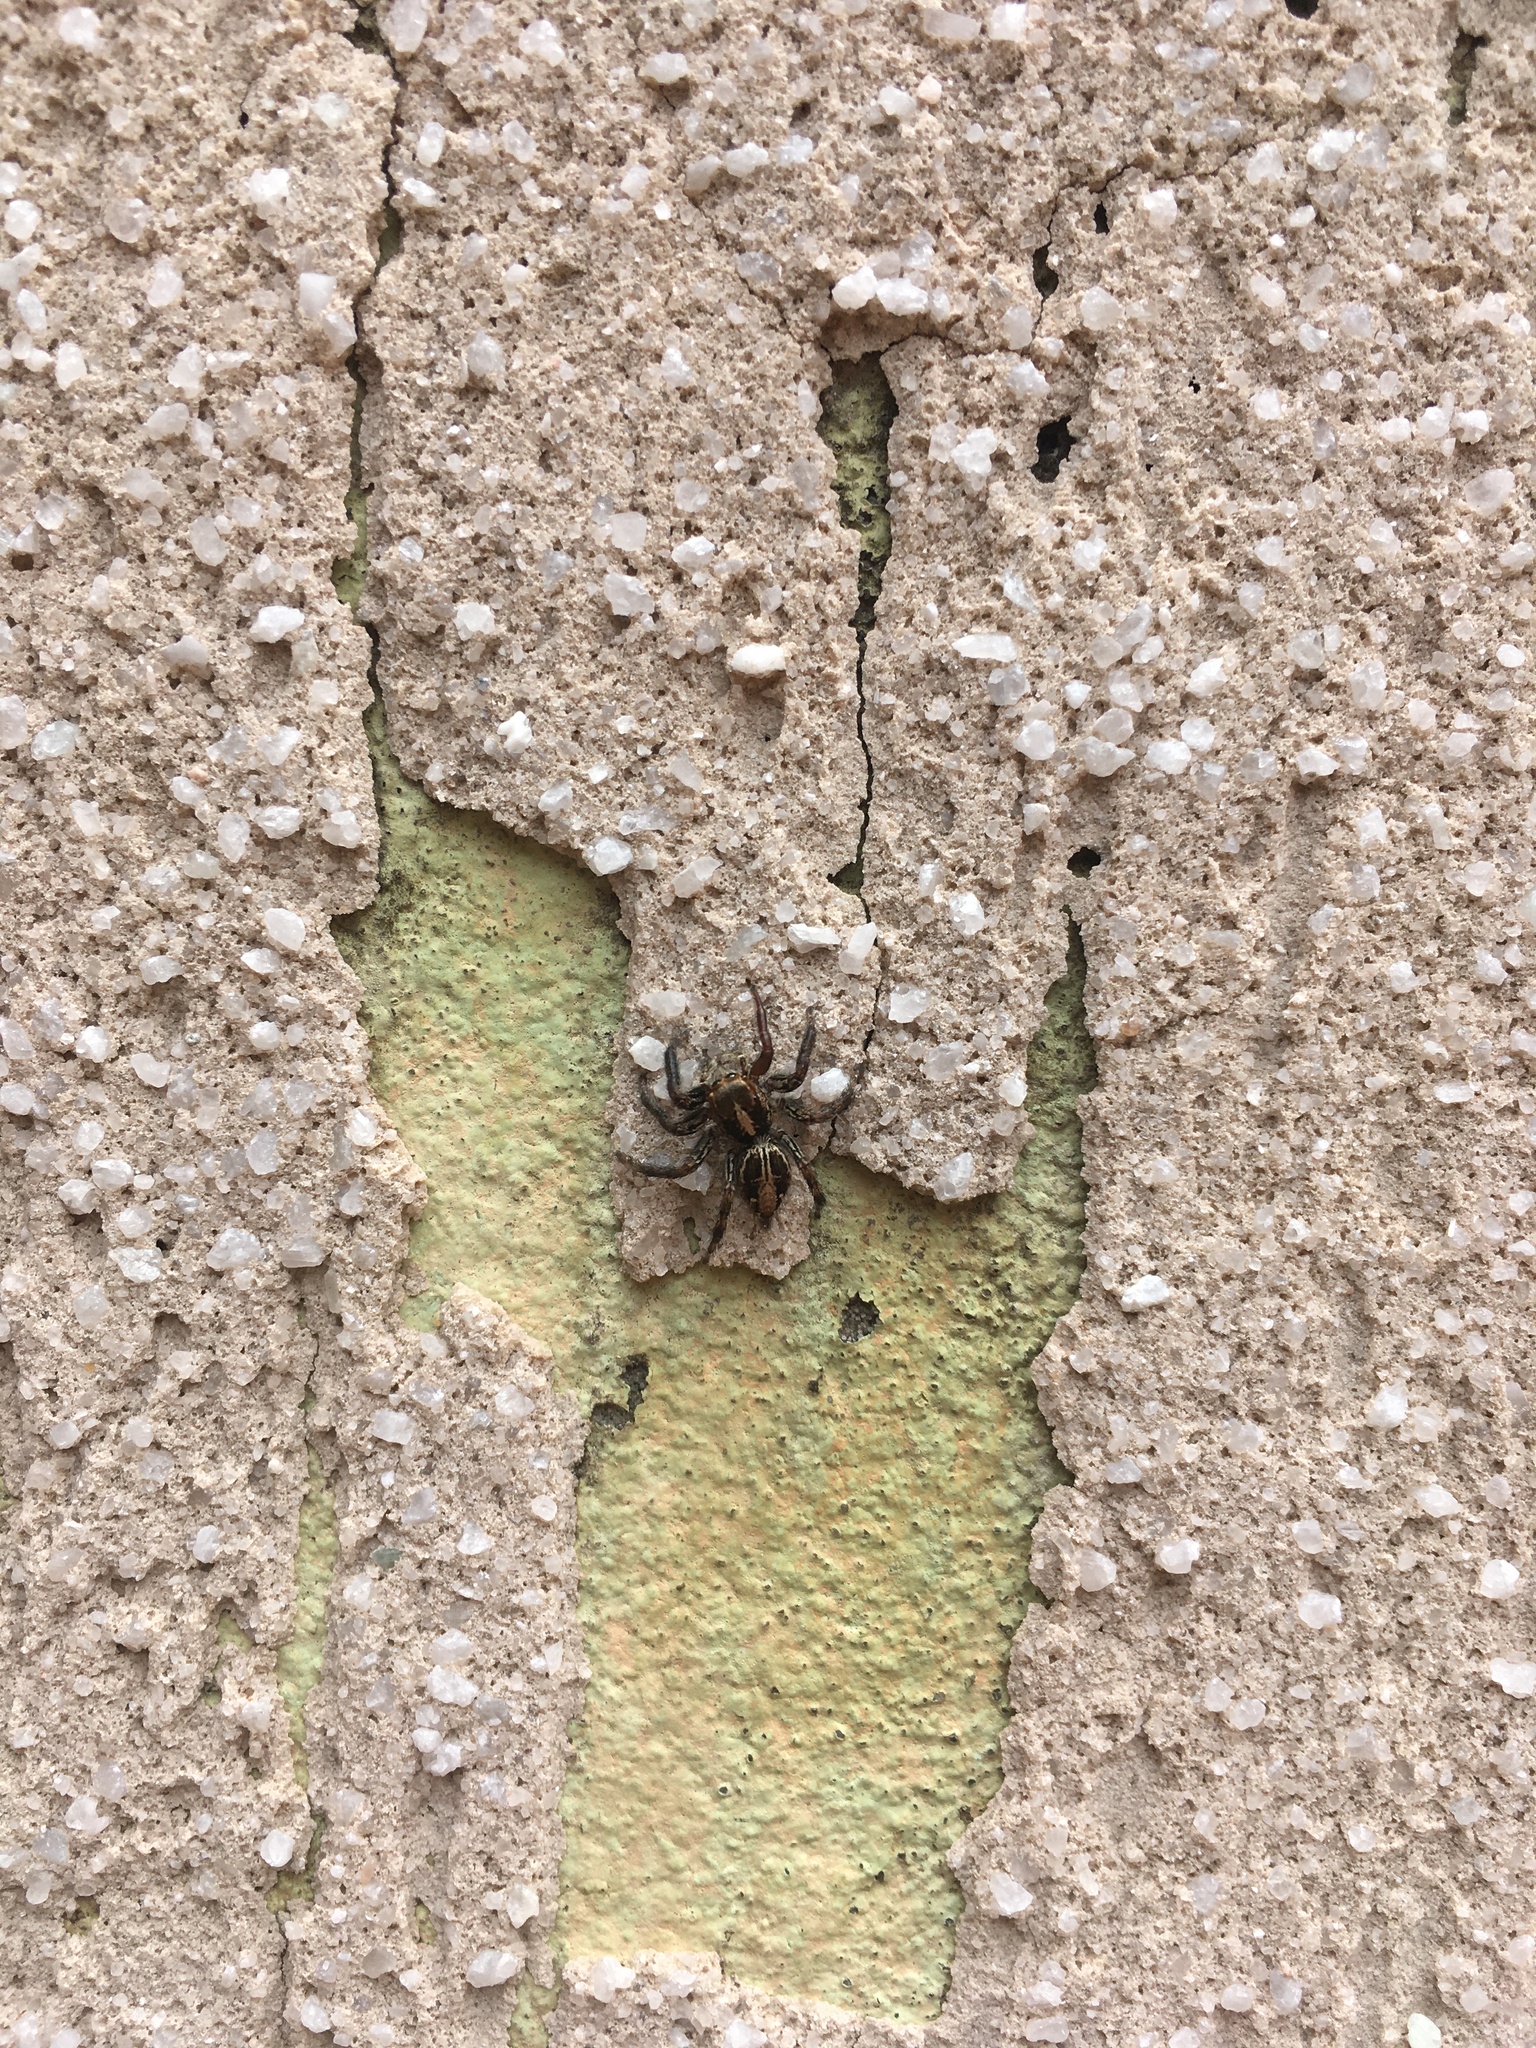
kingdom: Animalia
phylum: Arthropoda
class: Arachnida
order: Araneae
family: Salticidae
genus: Plexippus
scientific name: Plexippus paykulli
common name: Pantropical jumper
